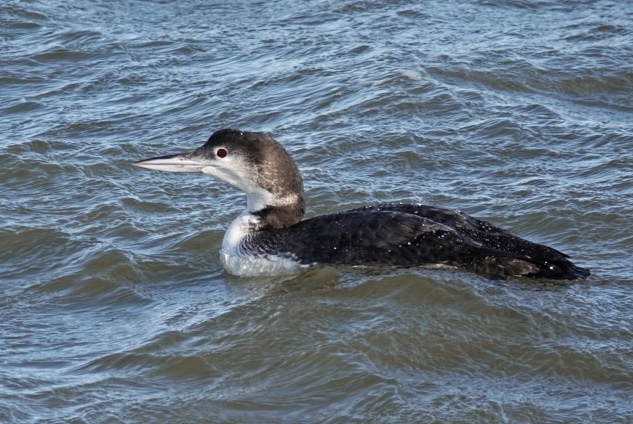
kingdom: Animalia
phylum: Chordata
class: Aves
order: Gaviiformes
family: Gaviidae
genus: Gavia
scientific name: Gavia immer
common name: Common loon
